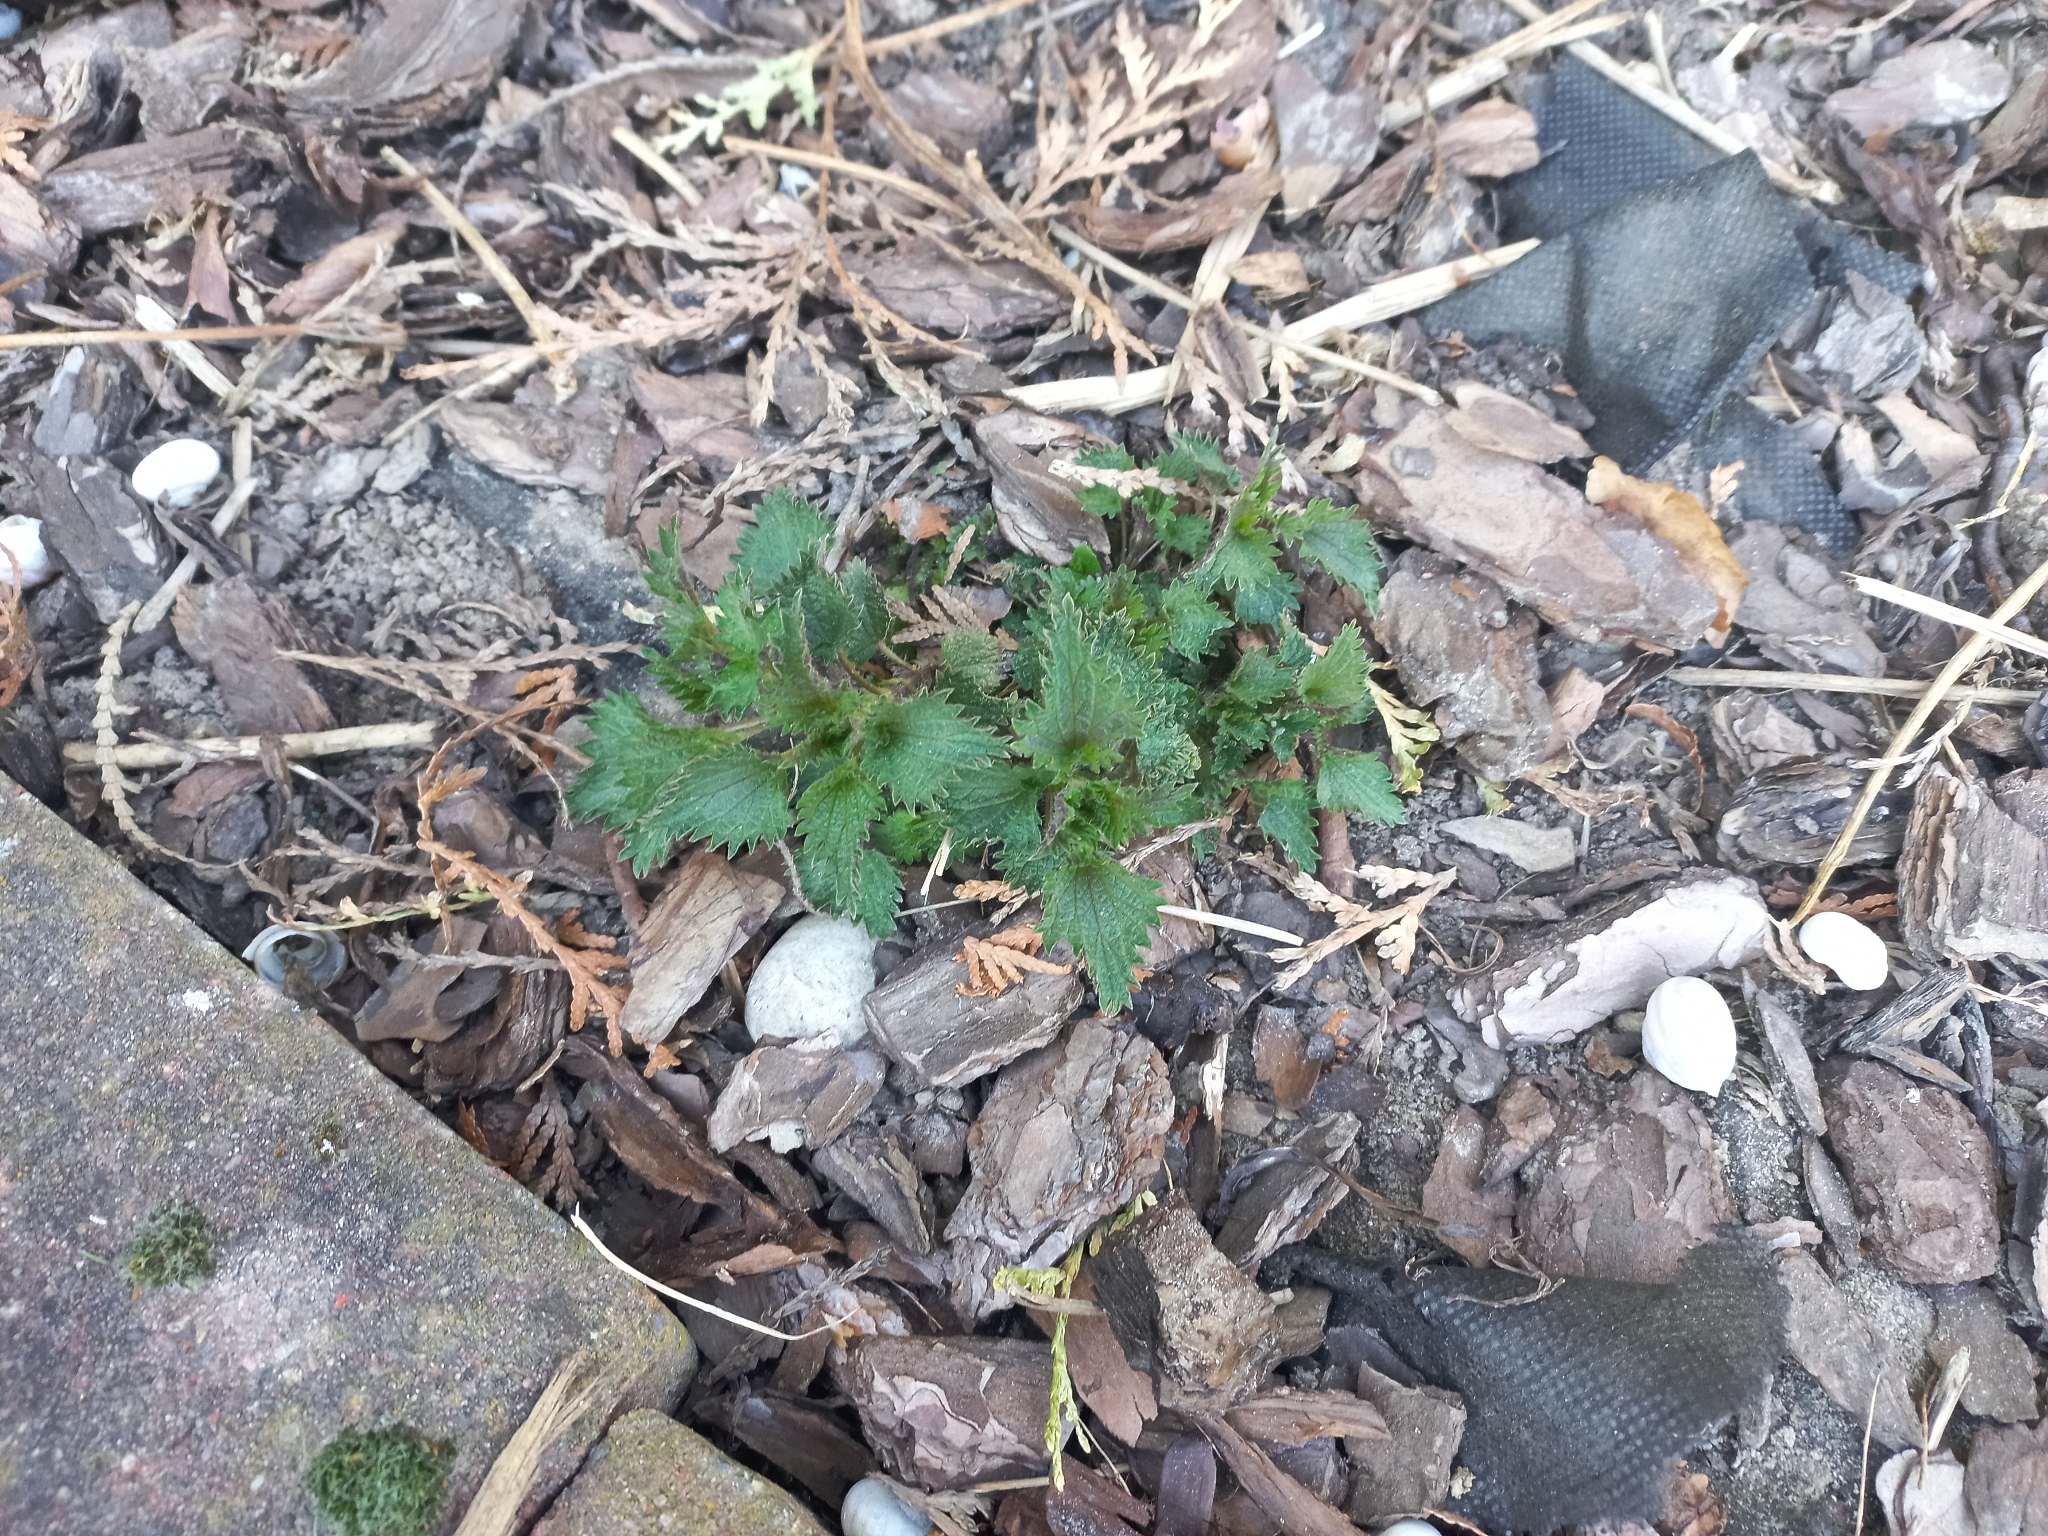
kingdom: Plantae
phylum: Tracheophyta
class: Magnoliopsida
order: Rosales
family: Urticaceae
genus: Urtica
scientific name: Urtica urens
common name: Dwarf nettle
